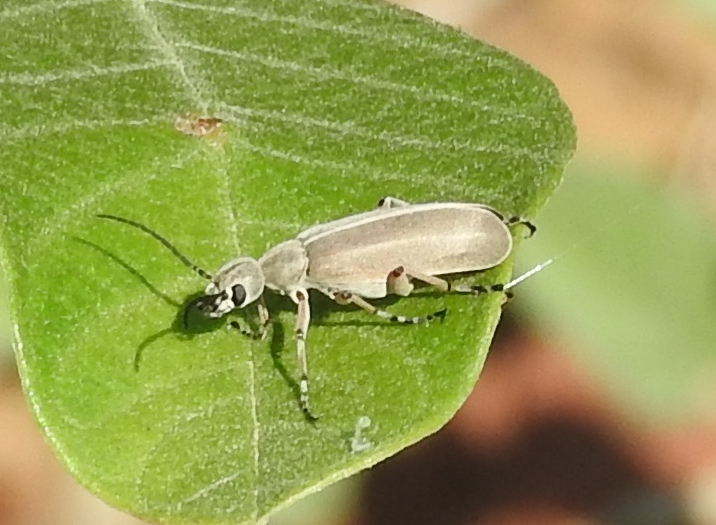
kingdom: Animalia
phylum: Arthropoda
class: Insecta
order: Coleoptera
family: Meloidae
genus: Epicauta
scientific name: Epicauta cupraeola
